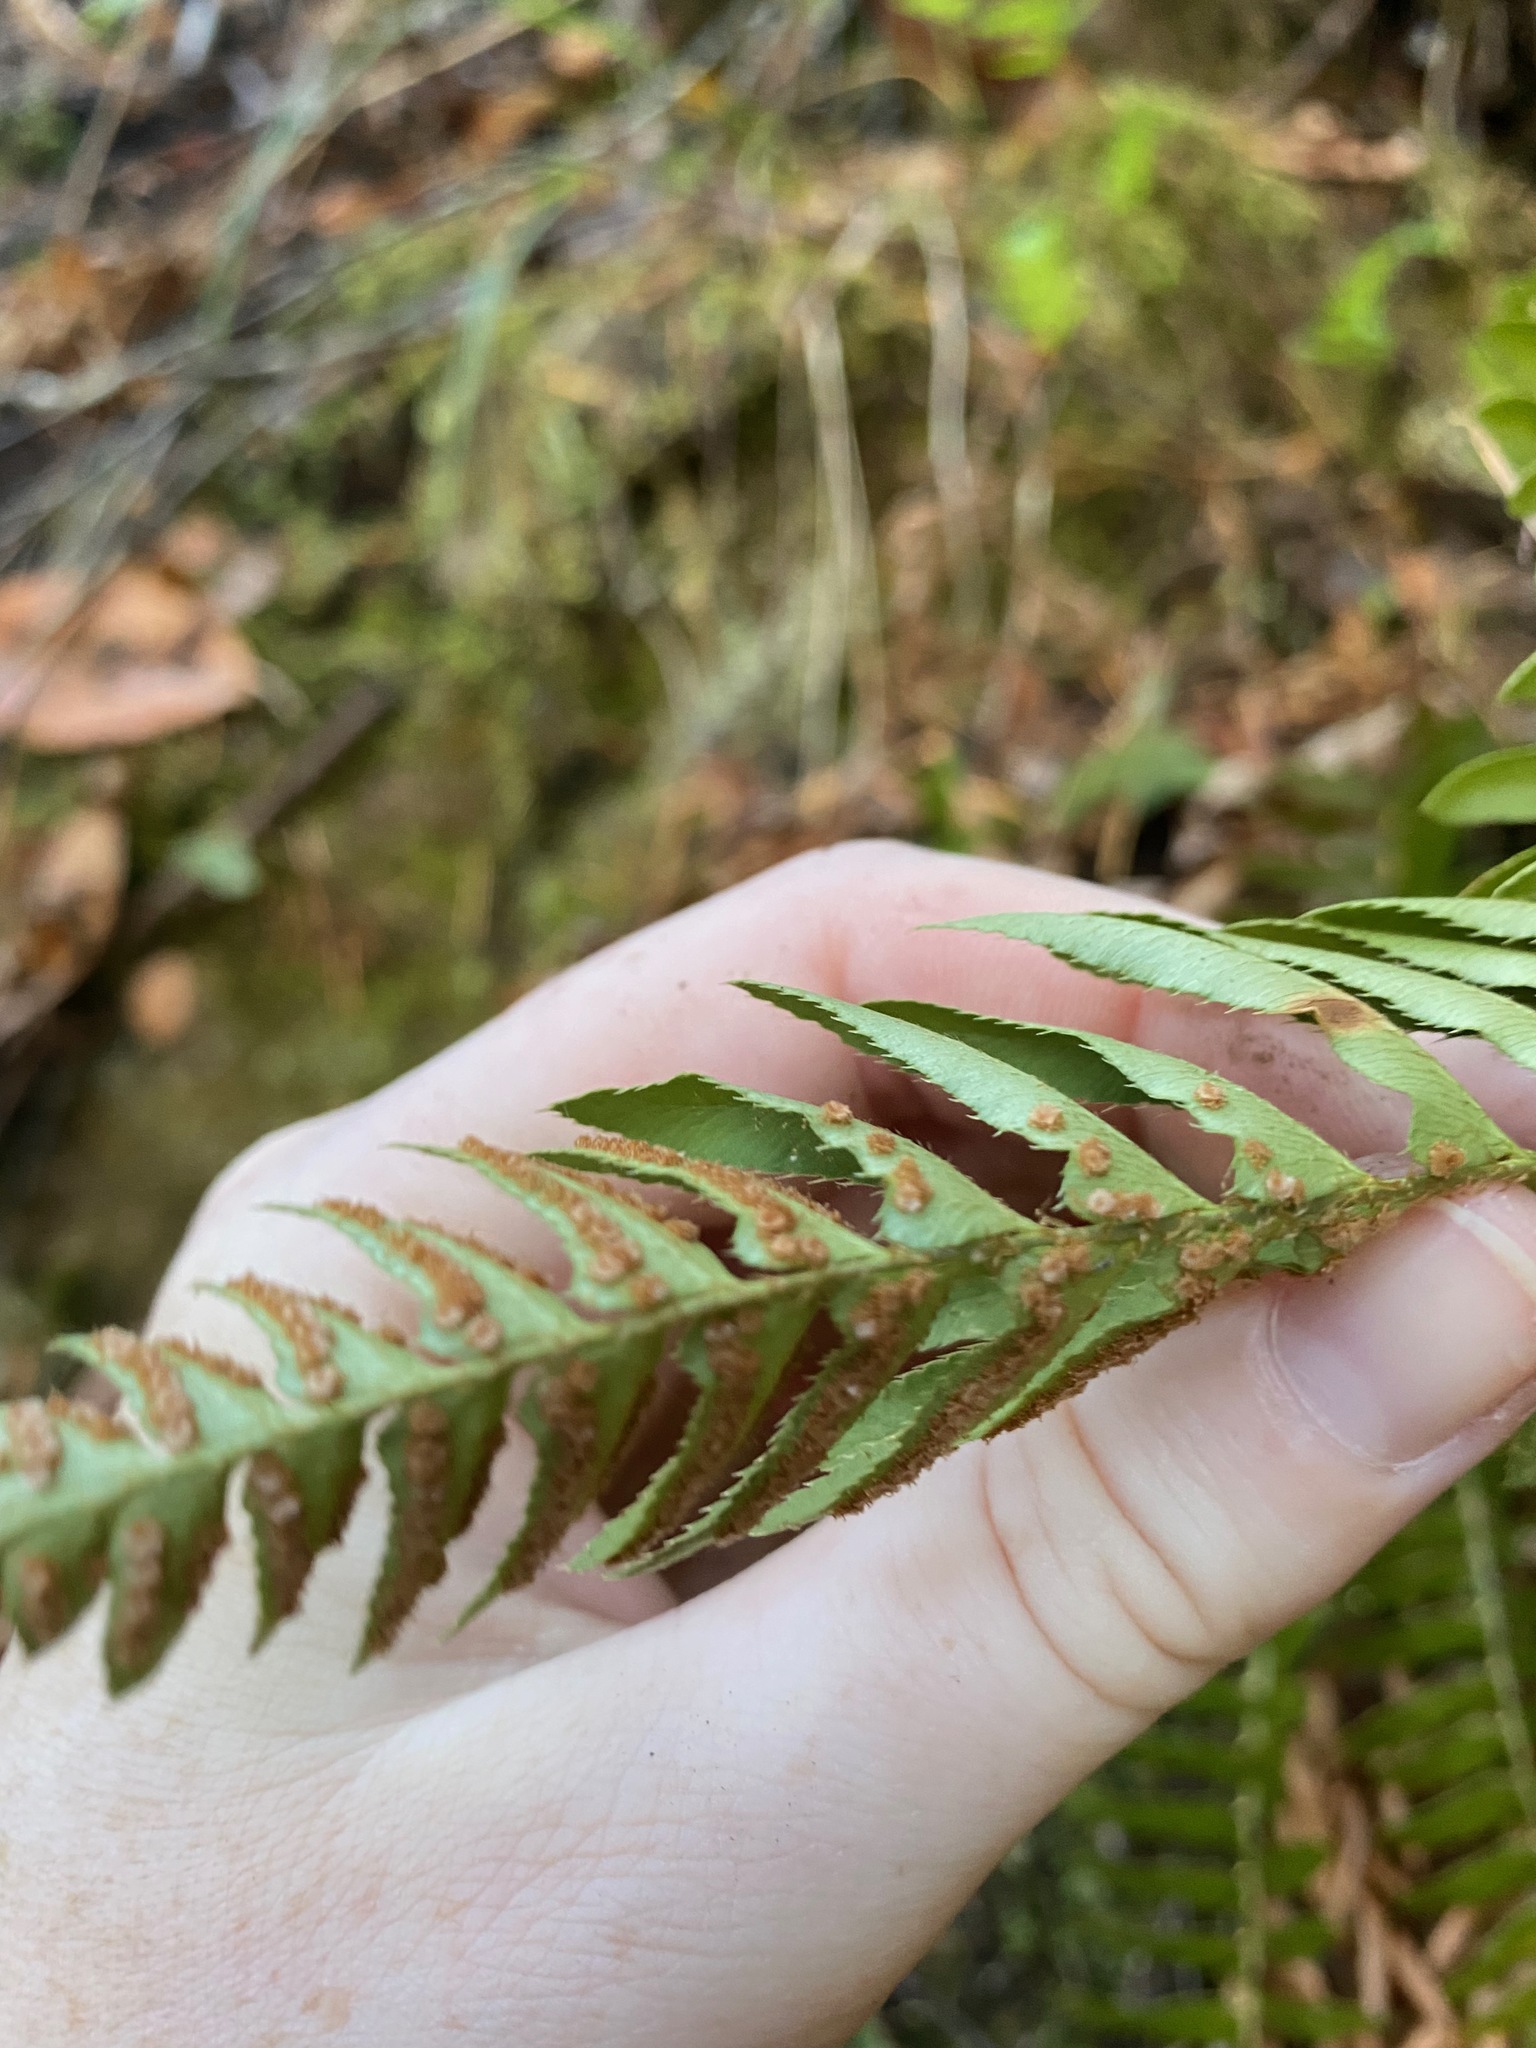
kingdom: Plantae
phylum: Tracheophyta
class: Polypodiopsida
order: Polypodiales
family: Dryopteridaceae
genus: Polystichum
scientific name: Polystichum imbricans
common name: Dwarf western sword fern
